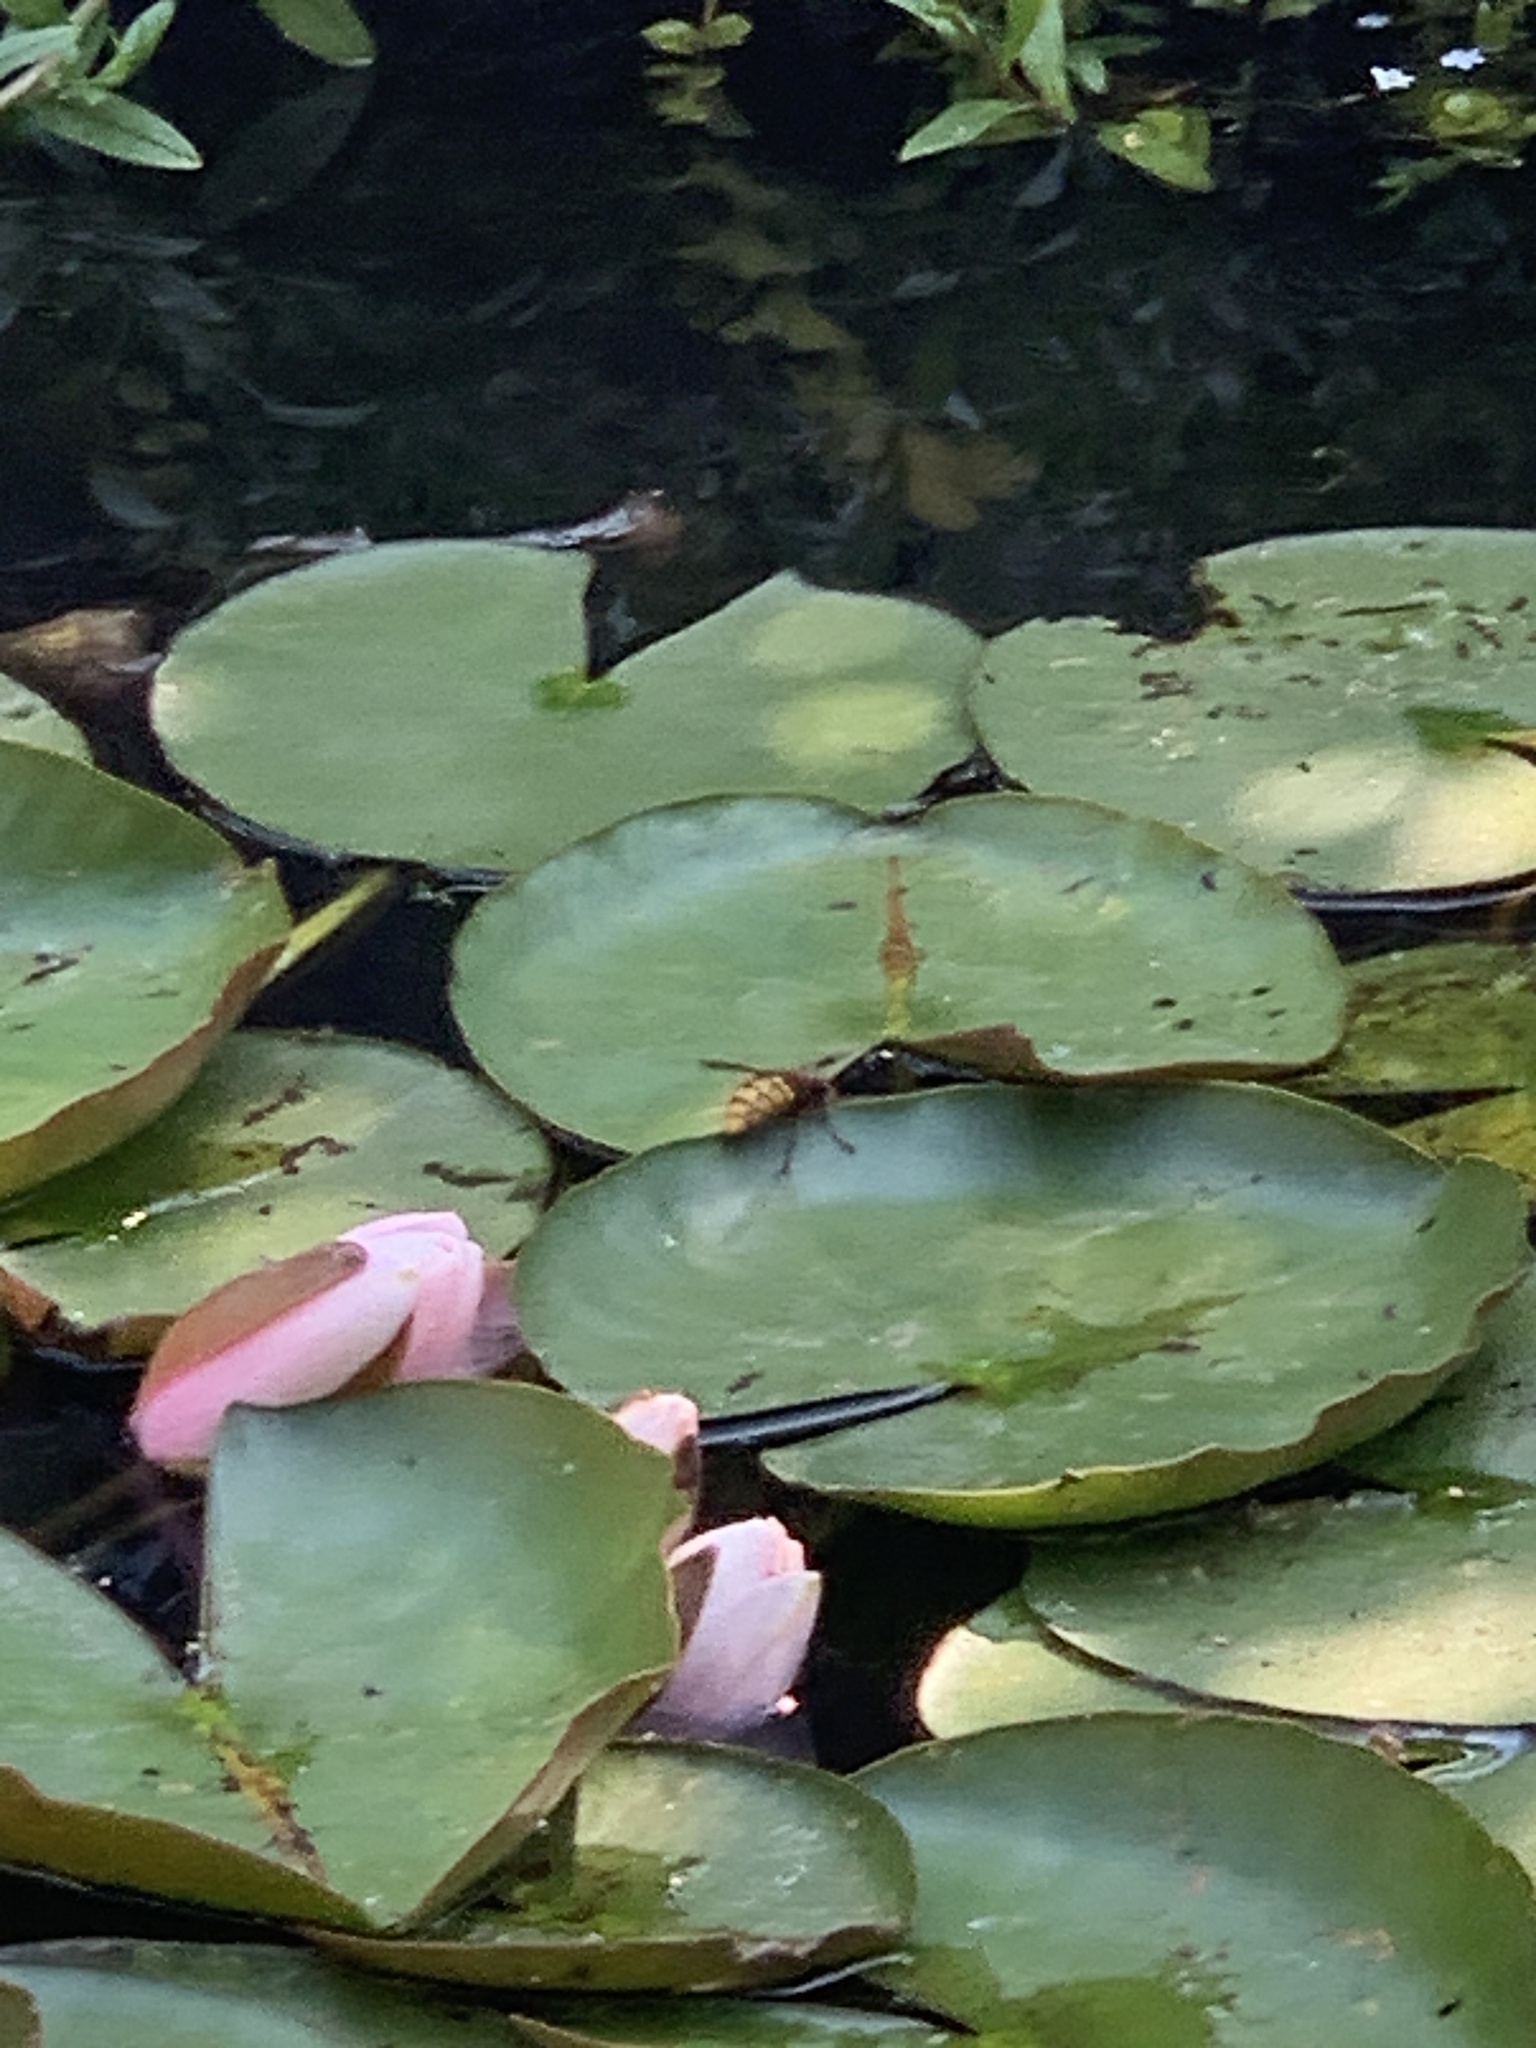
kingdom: Animalia
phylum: Arthropoda
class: Insecta
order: Hymenoptera
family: Vespidae
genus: Vespa
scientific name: Vespa crabro
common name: Hornet
